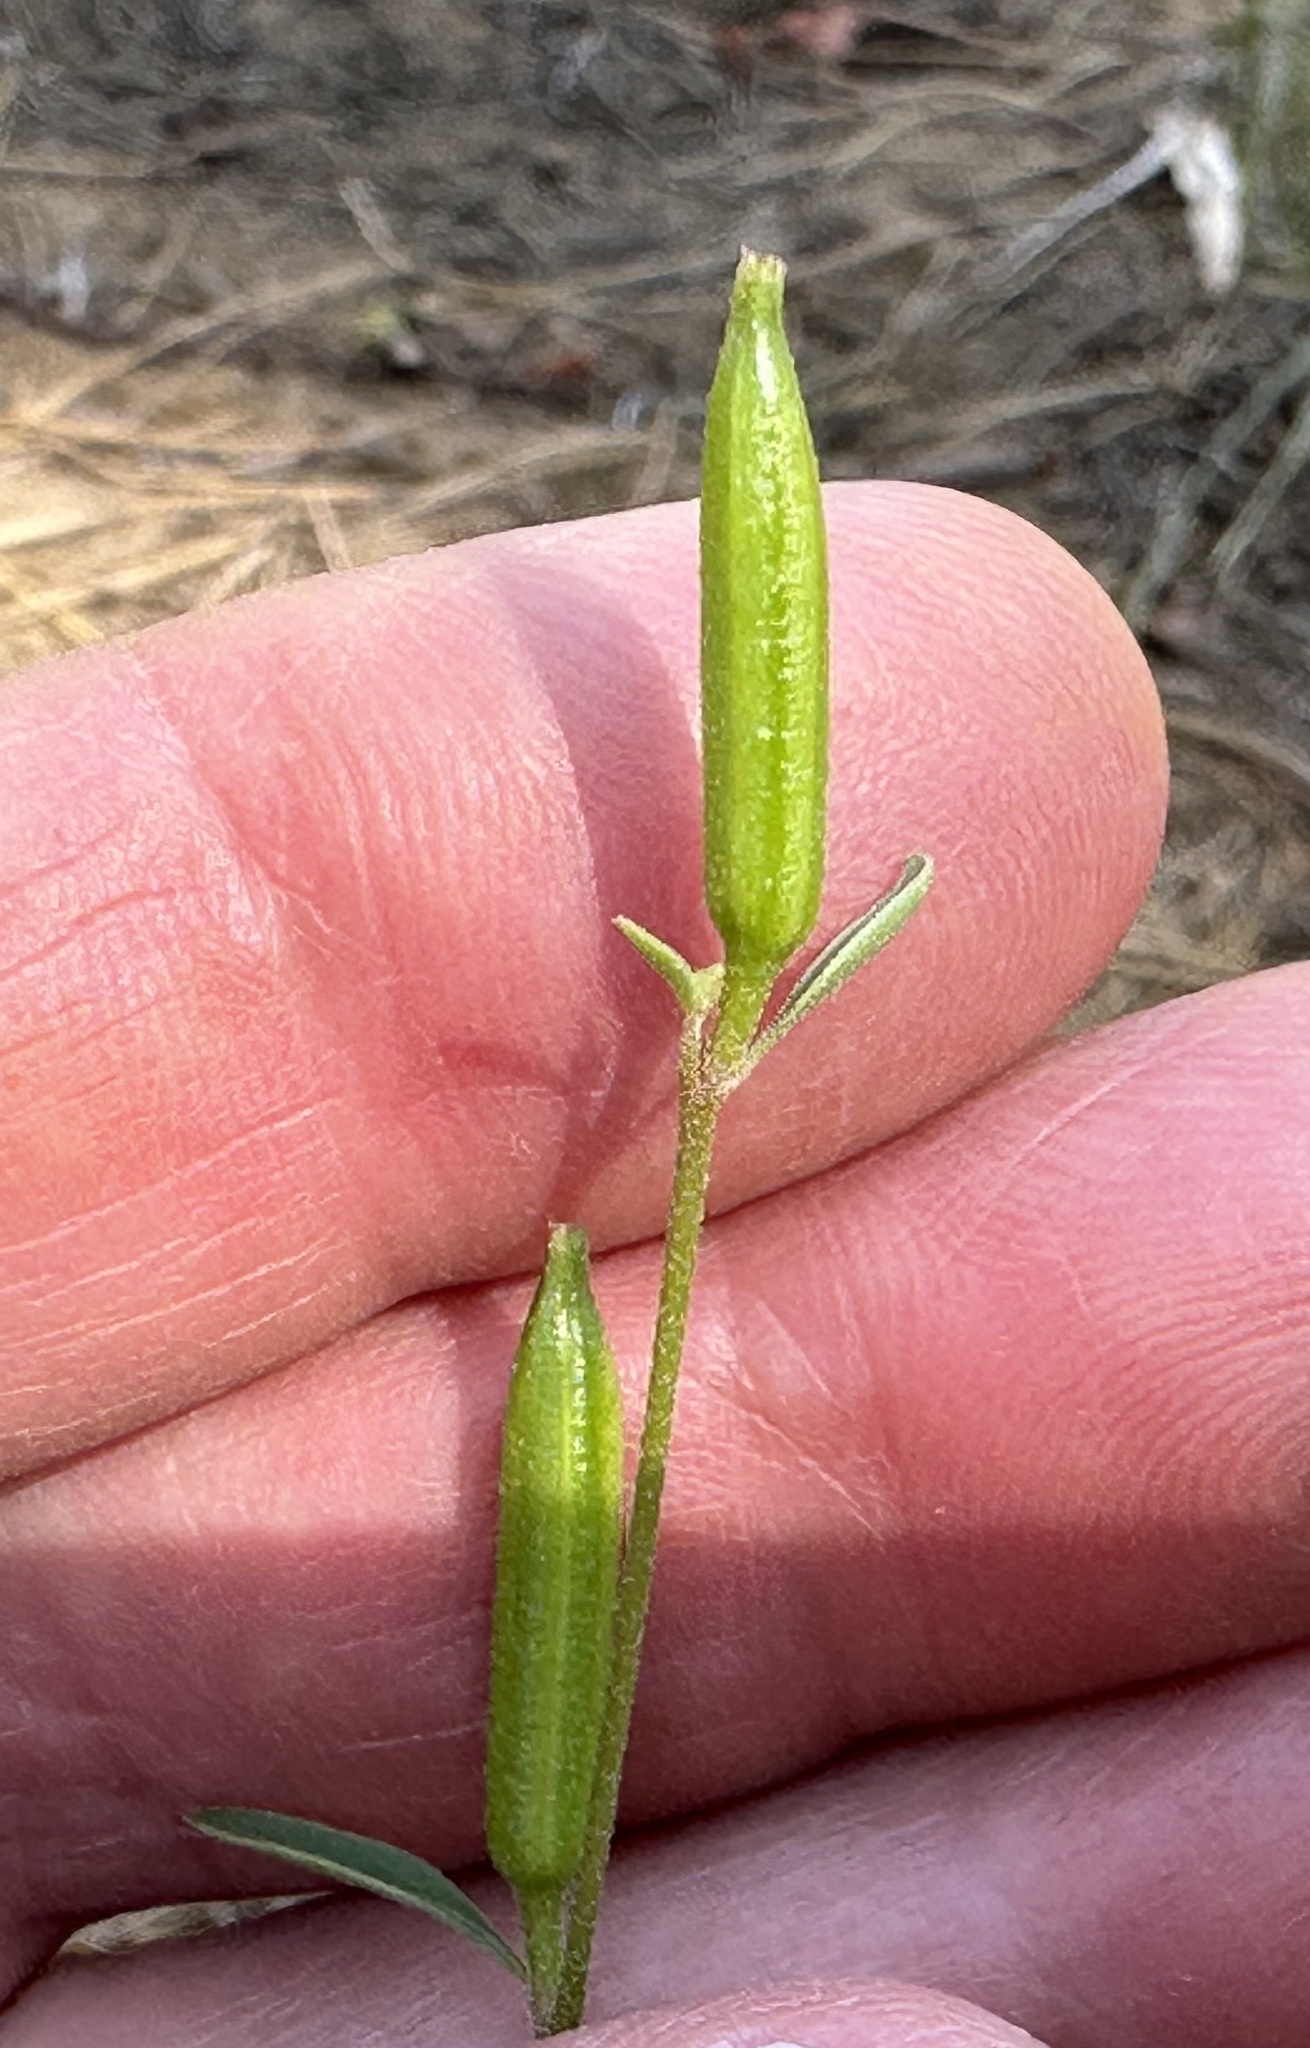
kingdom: Plantae
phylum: Tracheophyta
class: Magnoliopsida
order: Myrtales
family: Onagraceae
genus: Clarkia
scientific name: Clarkia rhomboidea
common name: Broadleaf clarkia
